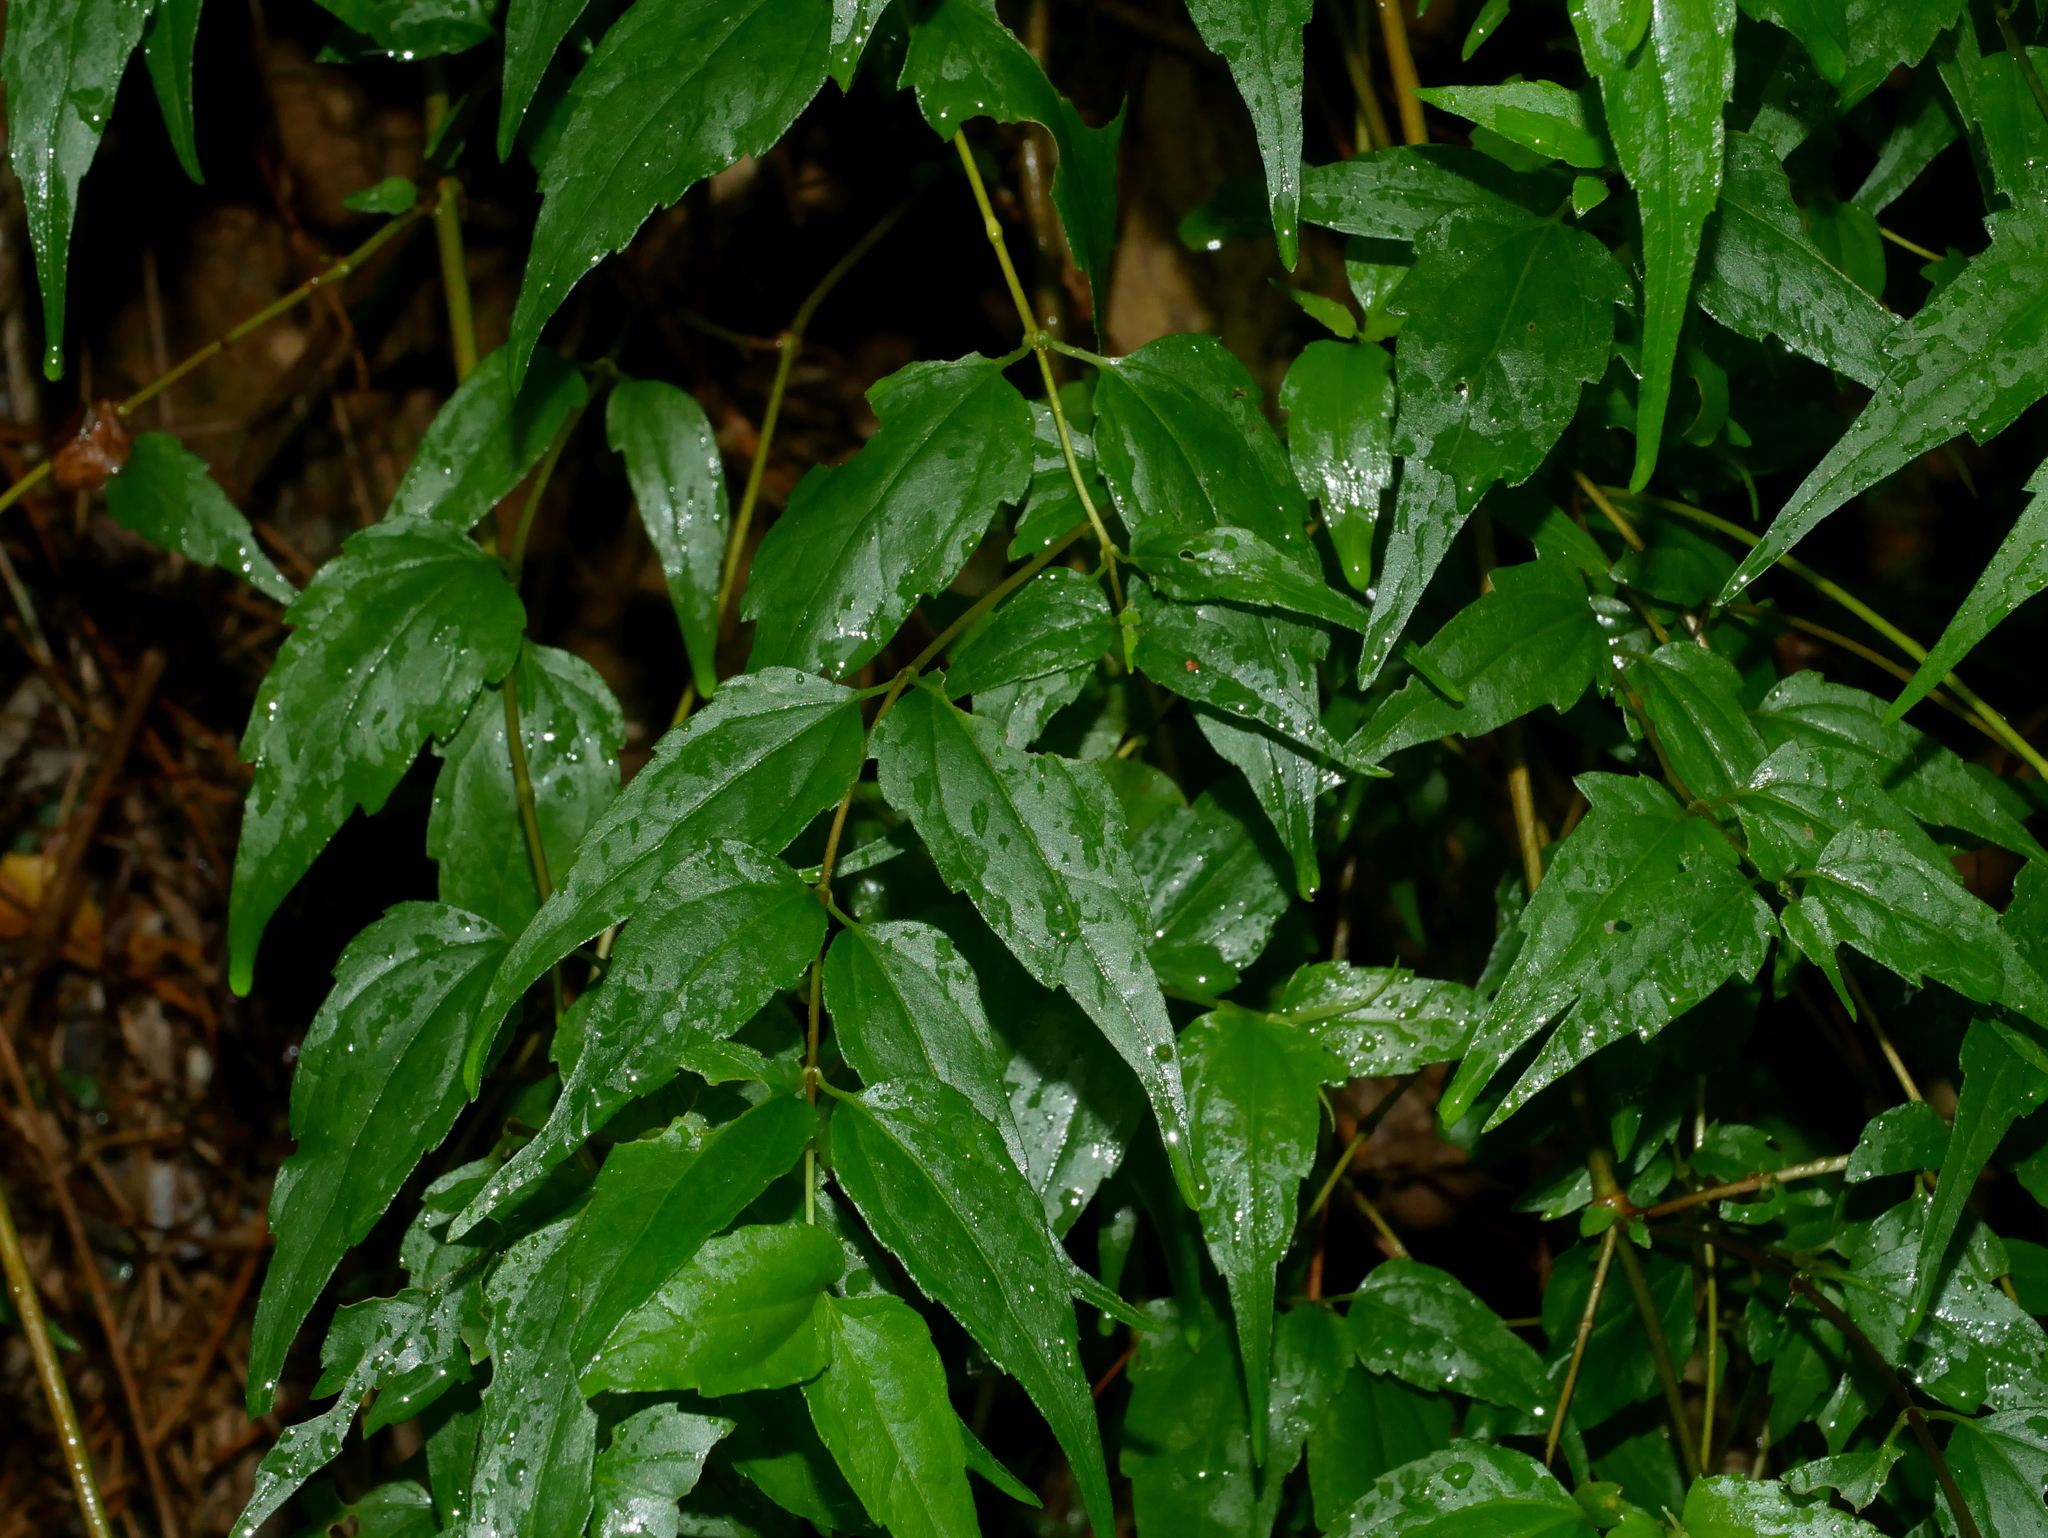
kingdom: Plantae
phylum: Tracheophyta
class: Magnoliopsida
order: Asterales
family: Asteraceae
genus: Eupatorium
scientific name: Eupatorium tashiroi
